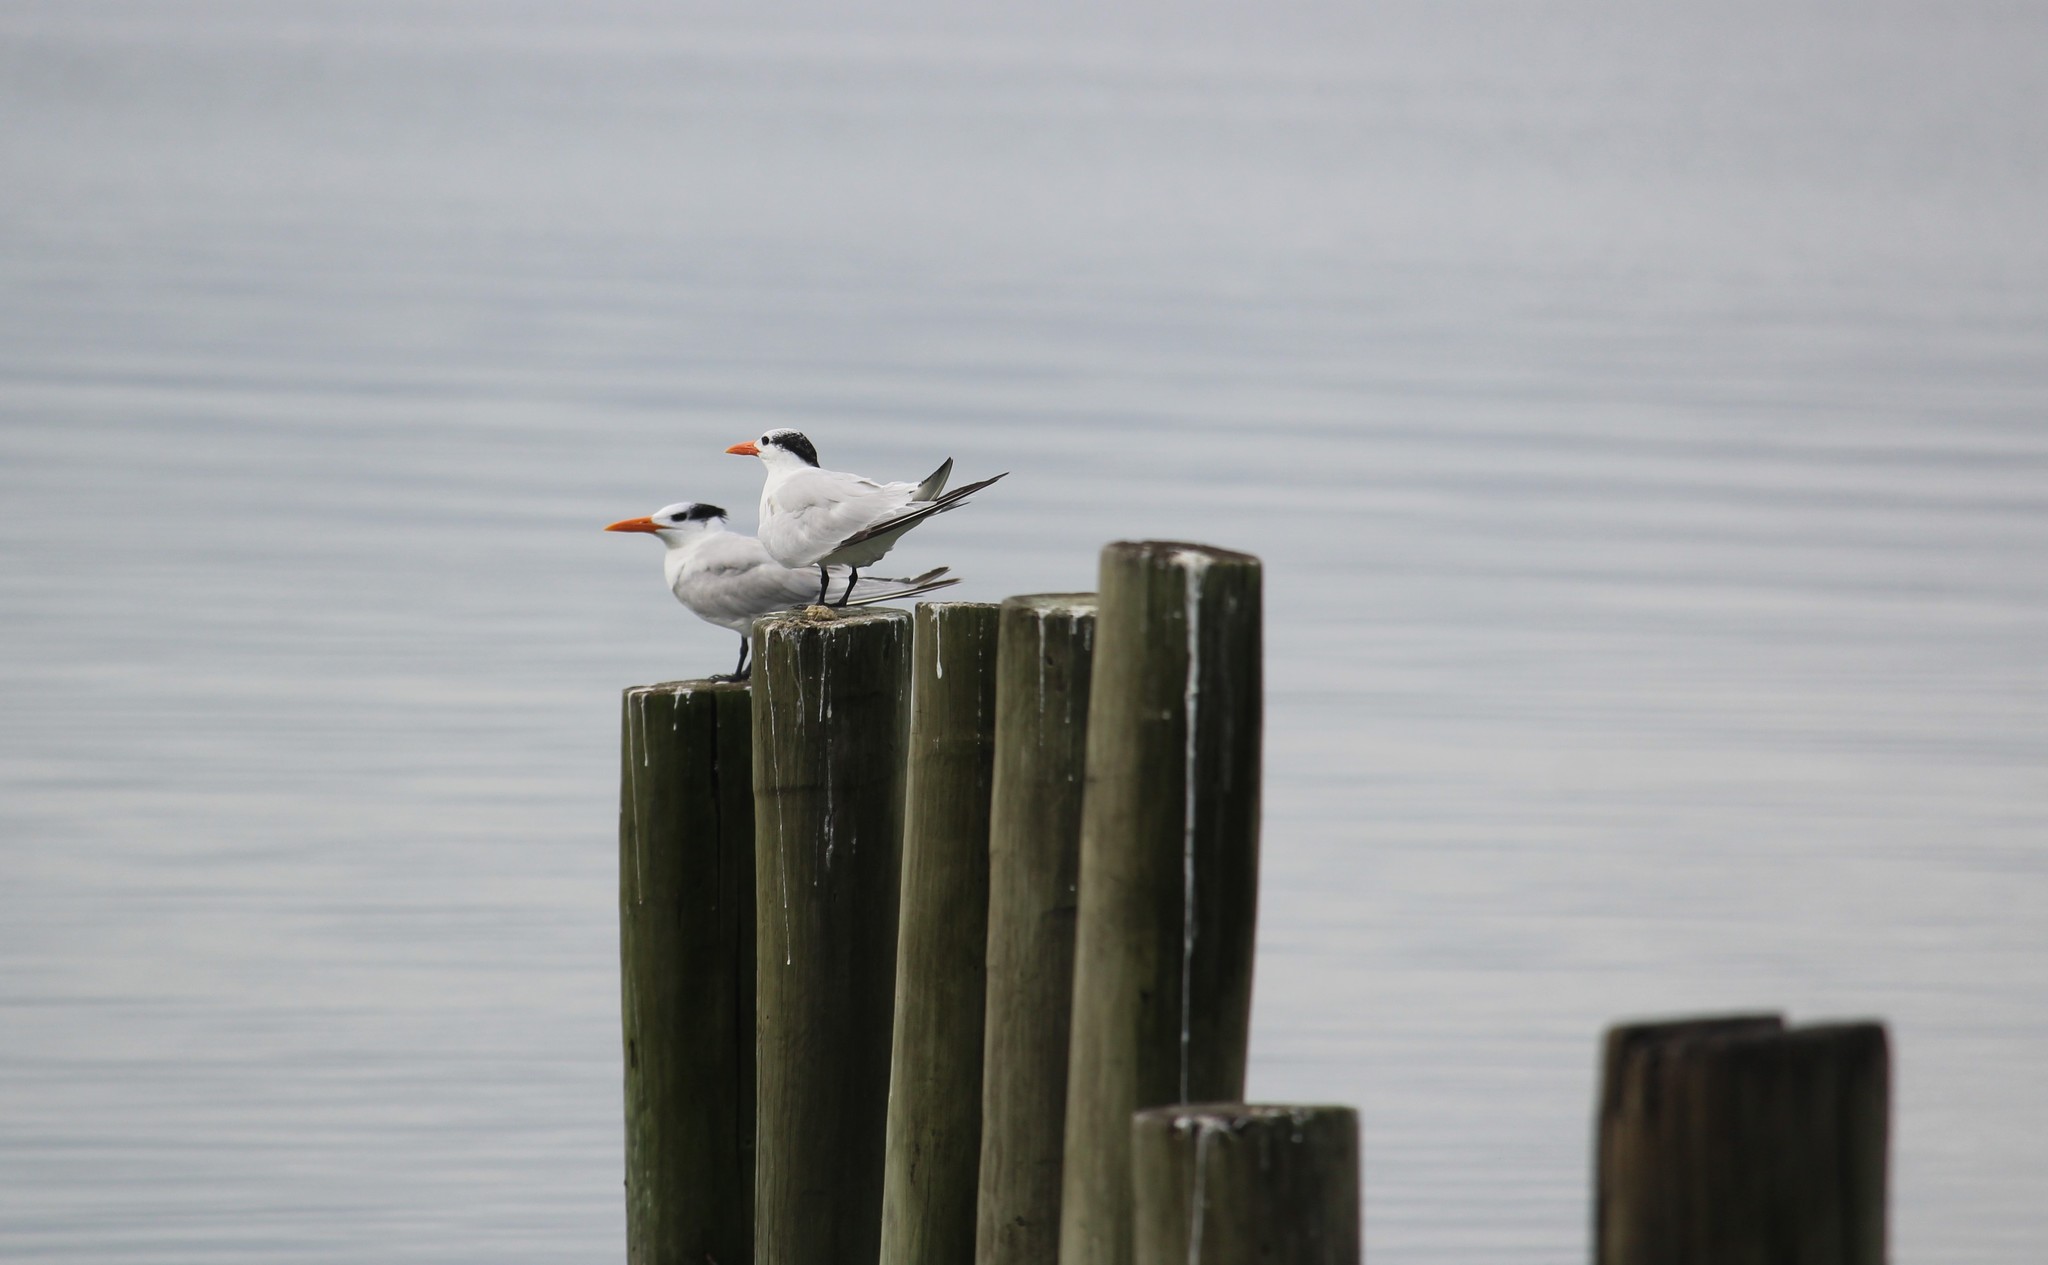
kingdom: Animalia
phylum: Chordata
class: Aves
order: Charadriiformes
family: Laridae
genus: Thalasseus
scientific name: Thalasseus maximus
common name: Royal tern
